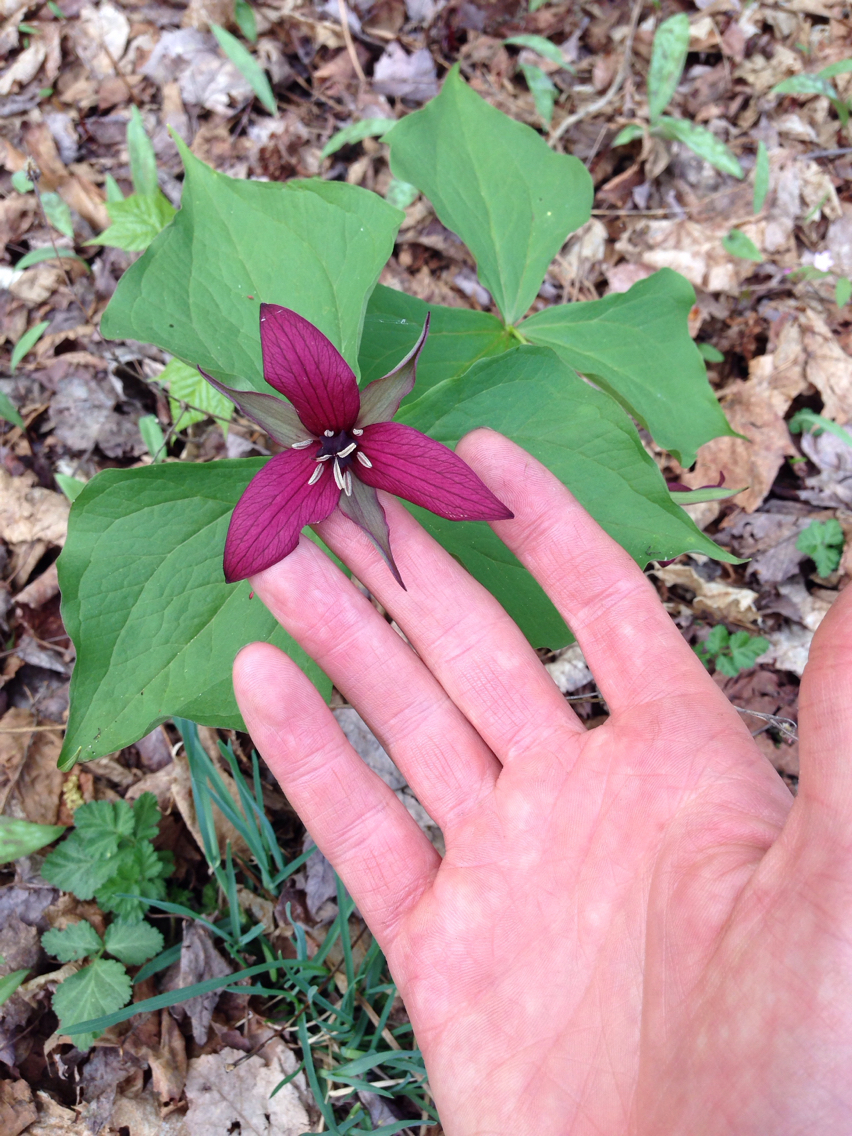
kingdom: Plantae
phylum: Tracheophyta
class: Liliopsida
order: Liliales
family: Melanthiaceae
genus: Trillium
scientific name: Trillium erectum
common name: Purple trillium
